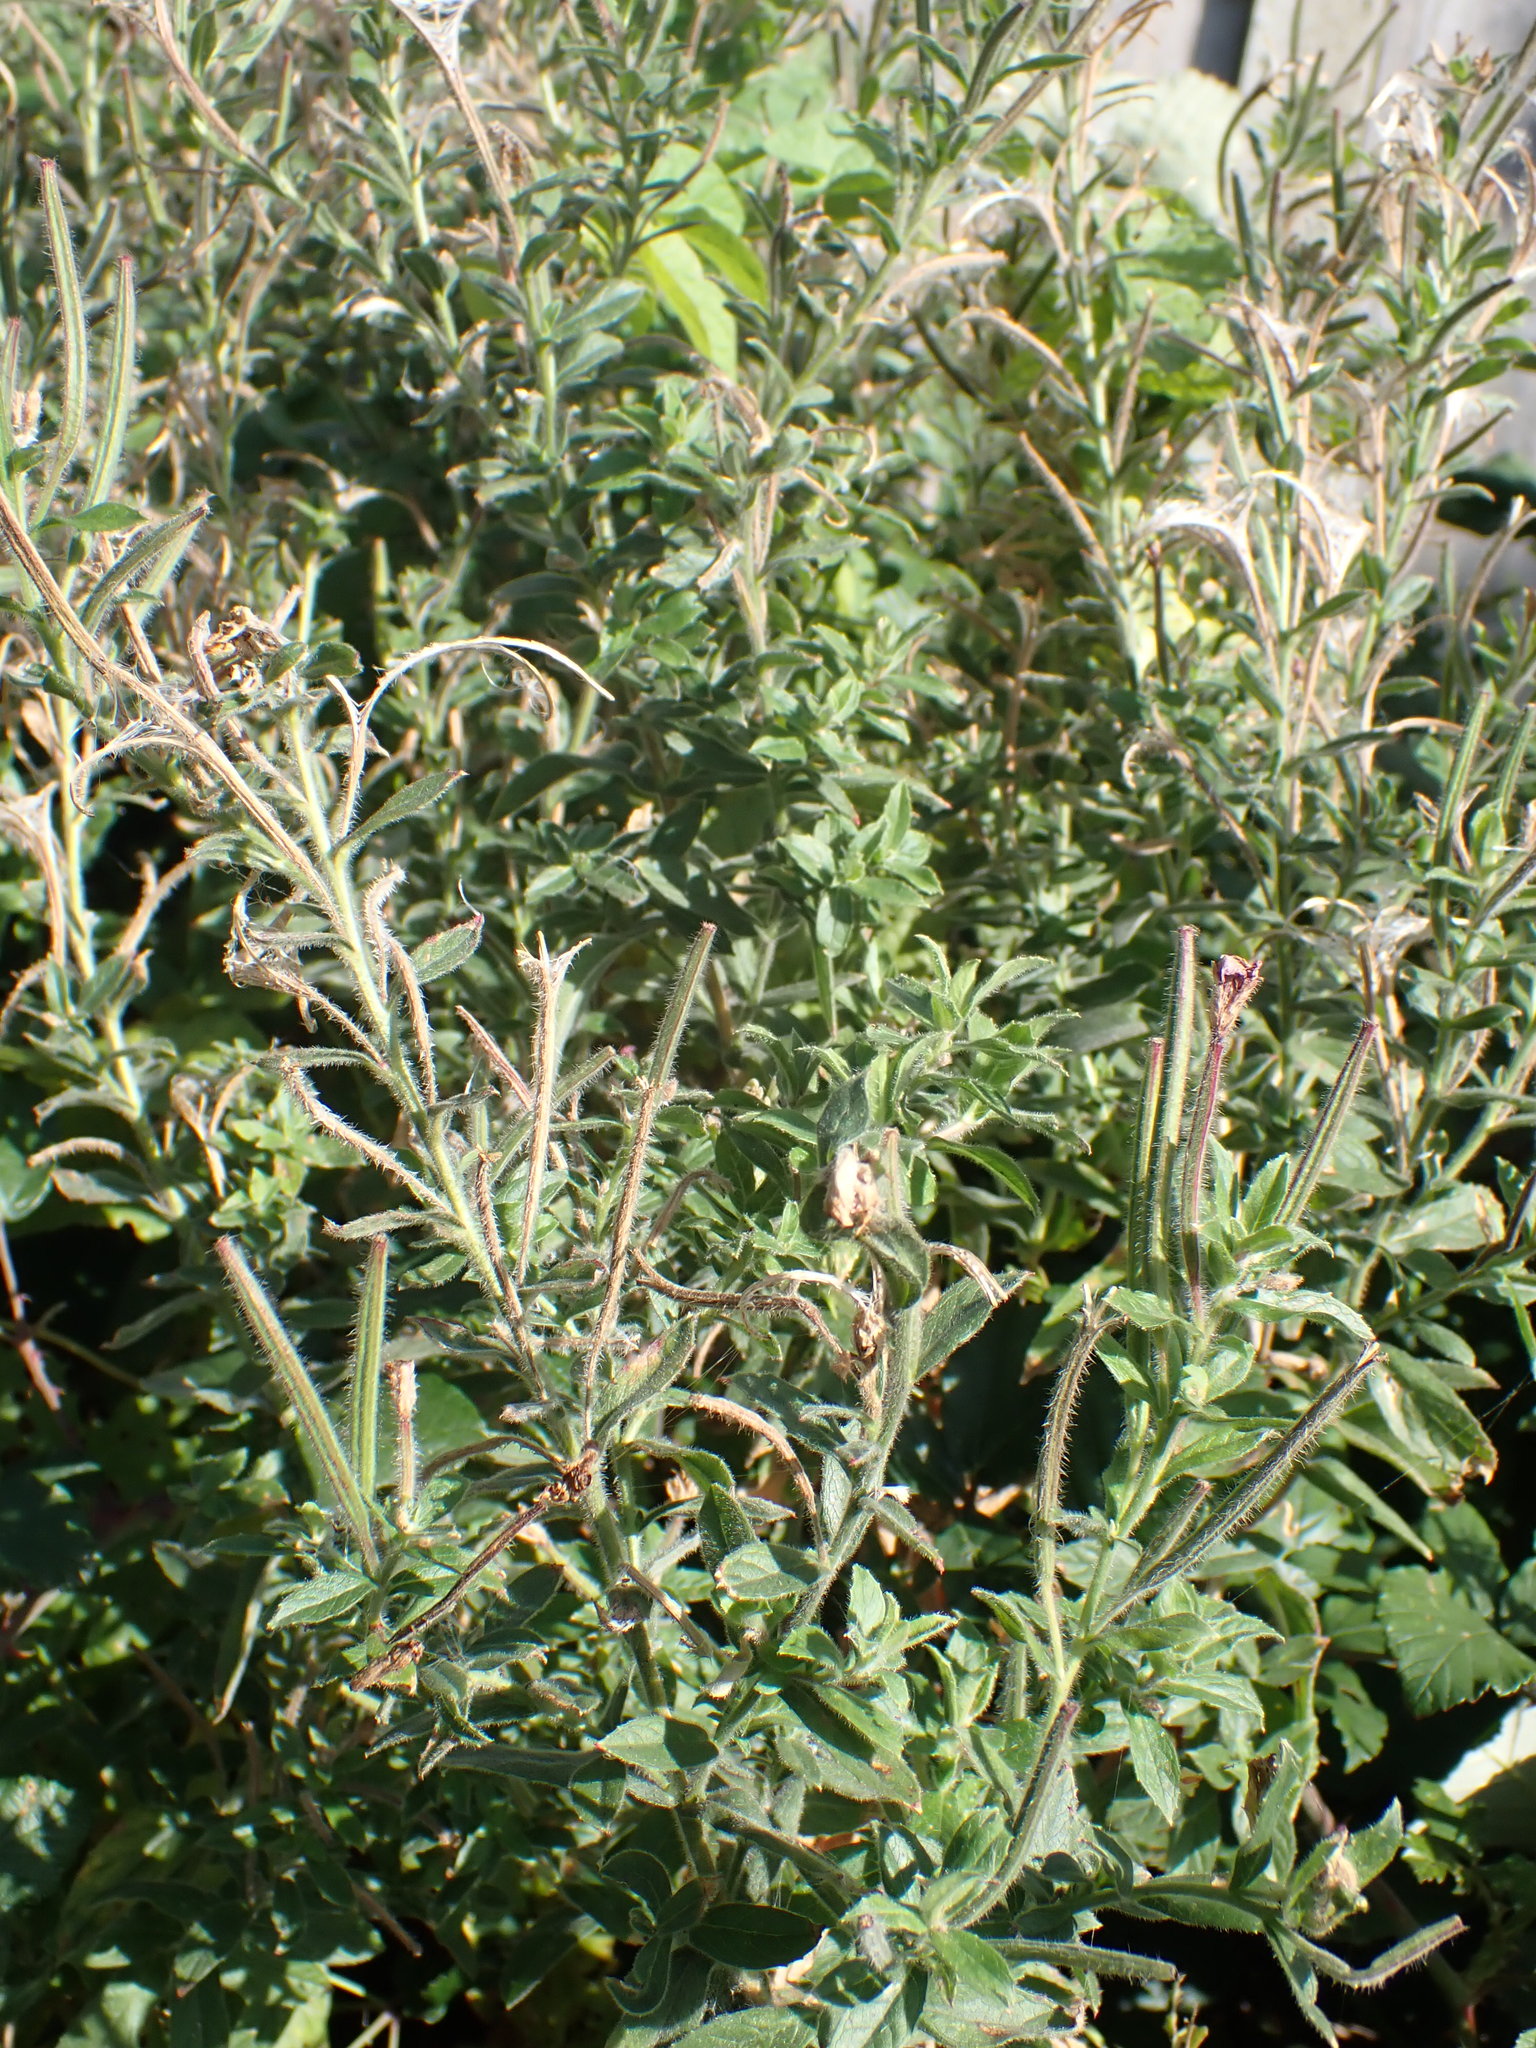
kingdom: Plantae
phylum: Tracheophyta
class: Magnoliopsida
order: Myrtales
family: Onagraceae
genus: Epilobium
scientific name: Epilobium hirsutum
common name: Great willowherb
